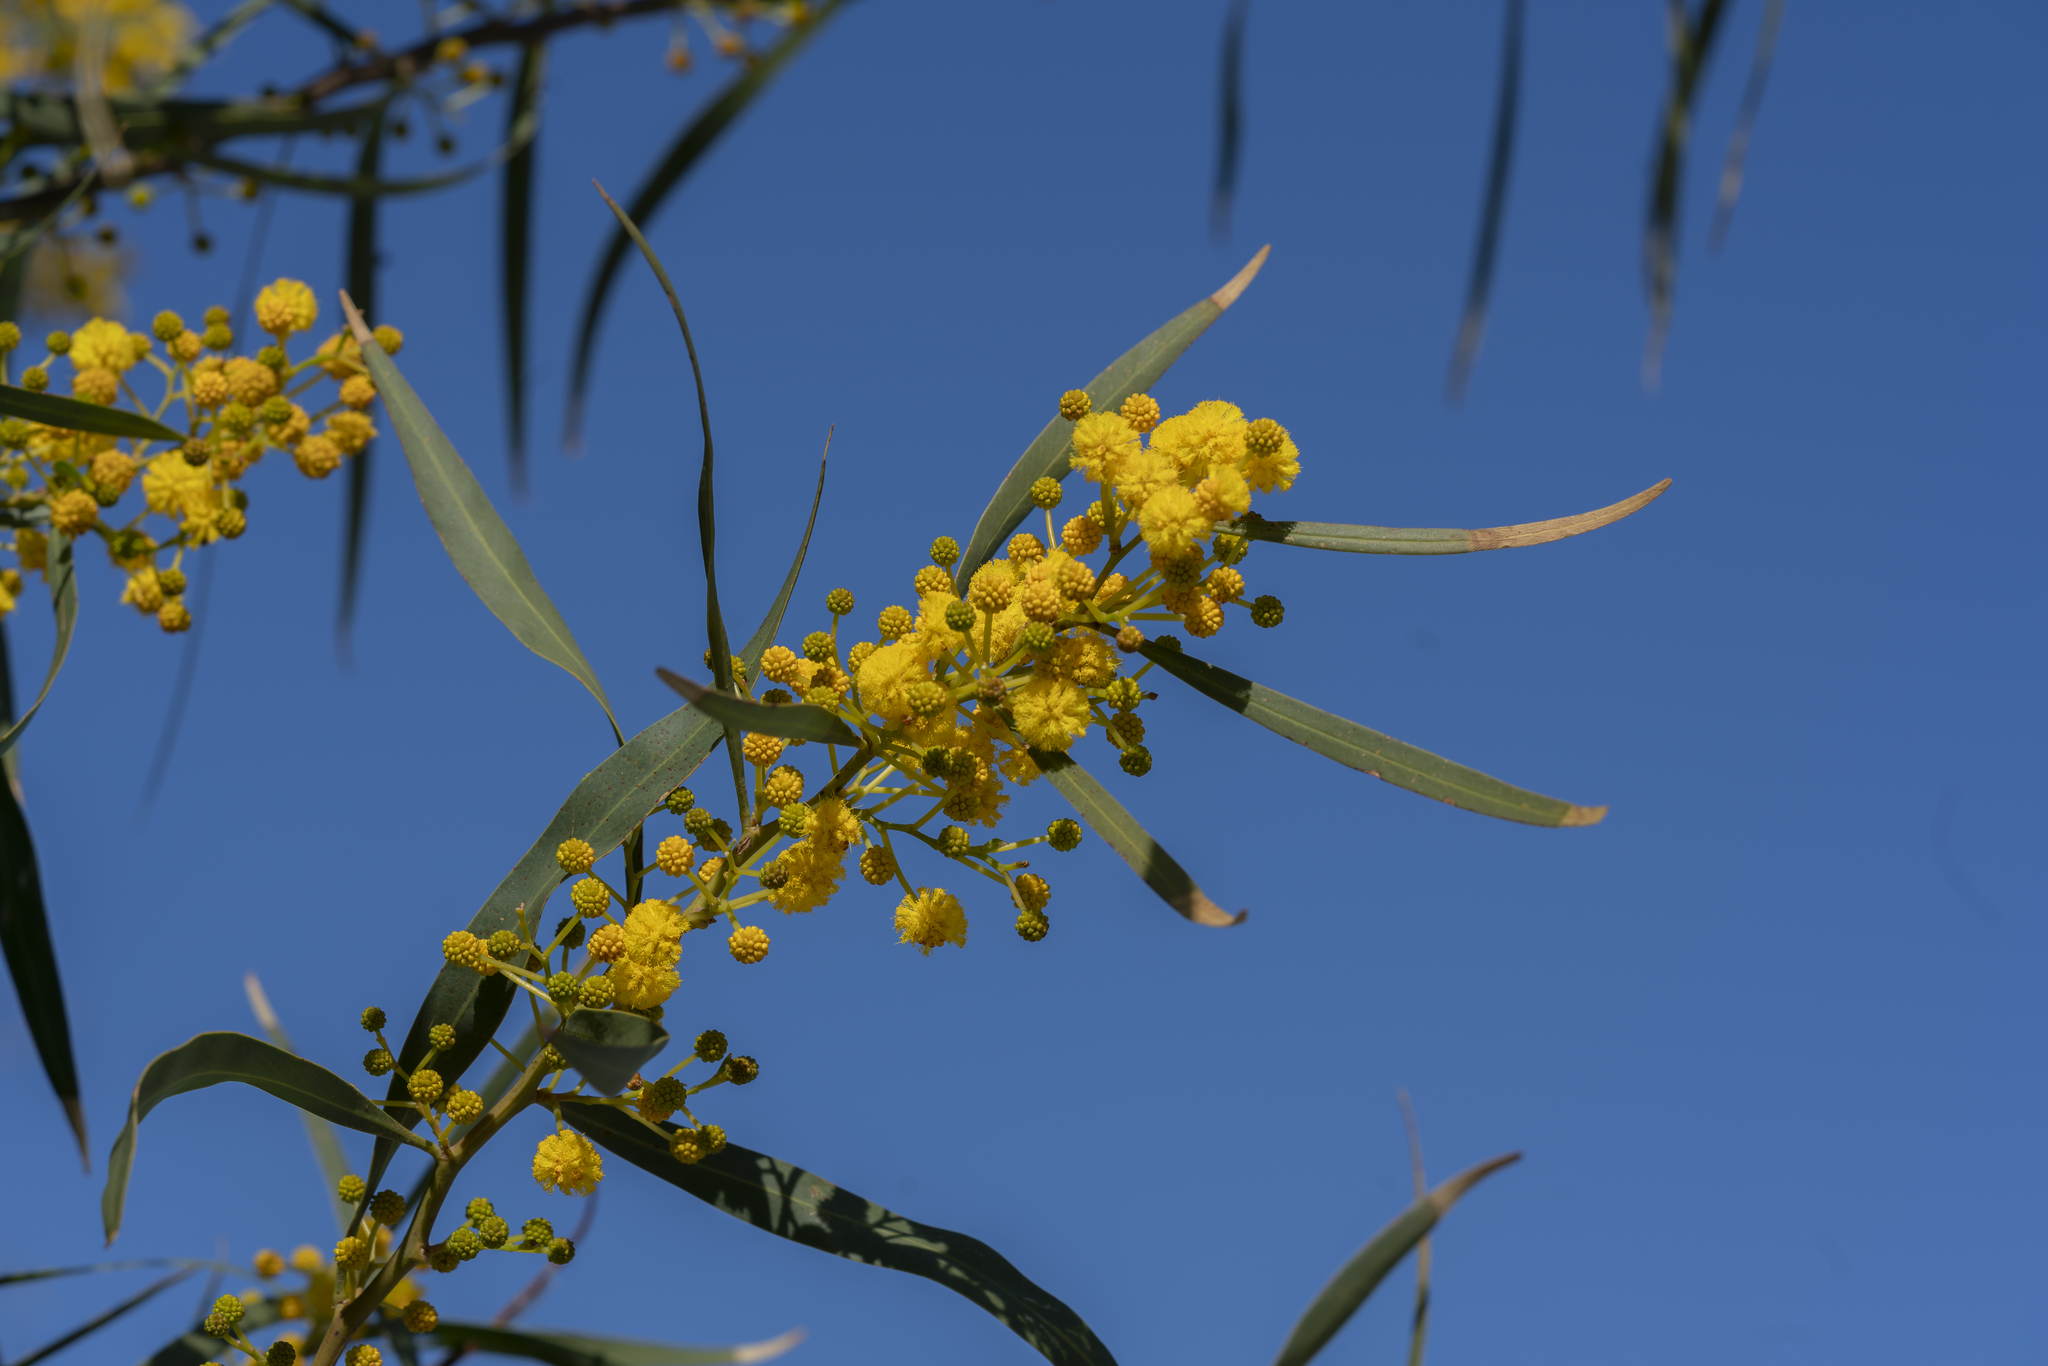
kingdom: Plantae
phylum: Tracheophyta
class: Magnoliopsida
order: Fabales
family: Fabaceae
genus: Acacia
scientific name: Acacia saligna
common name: Orange wattle
